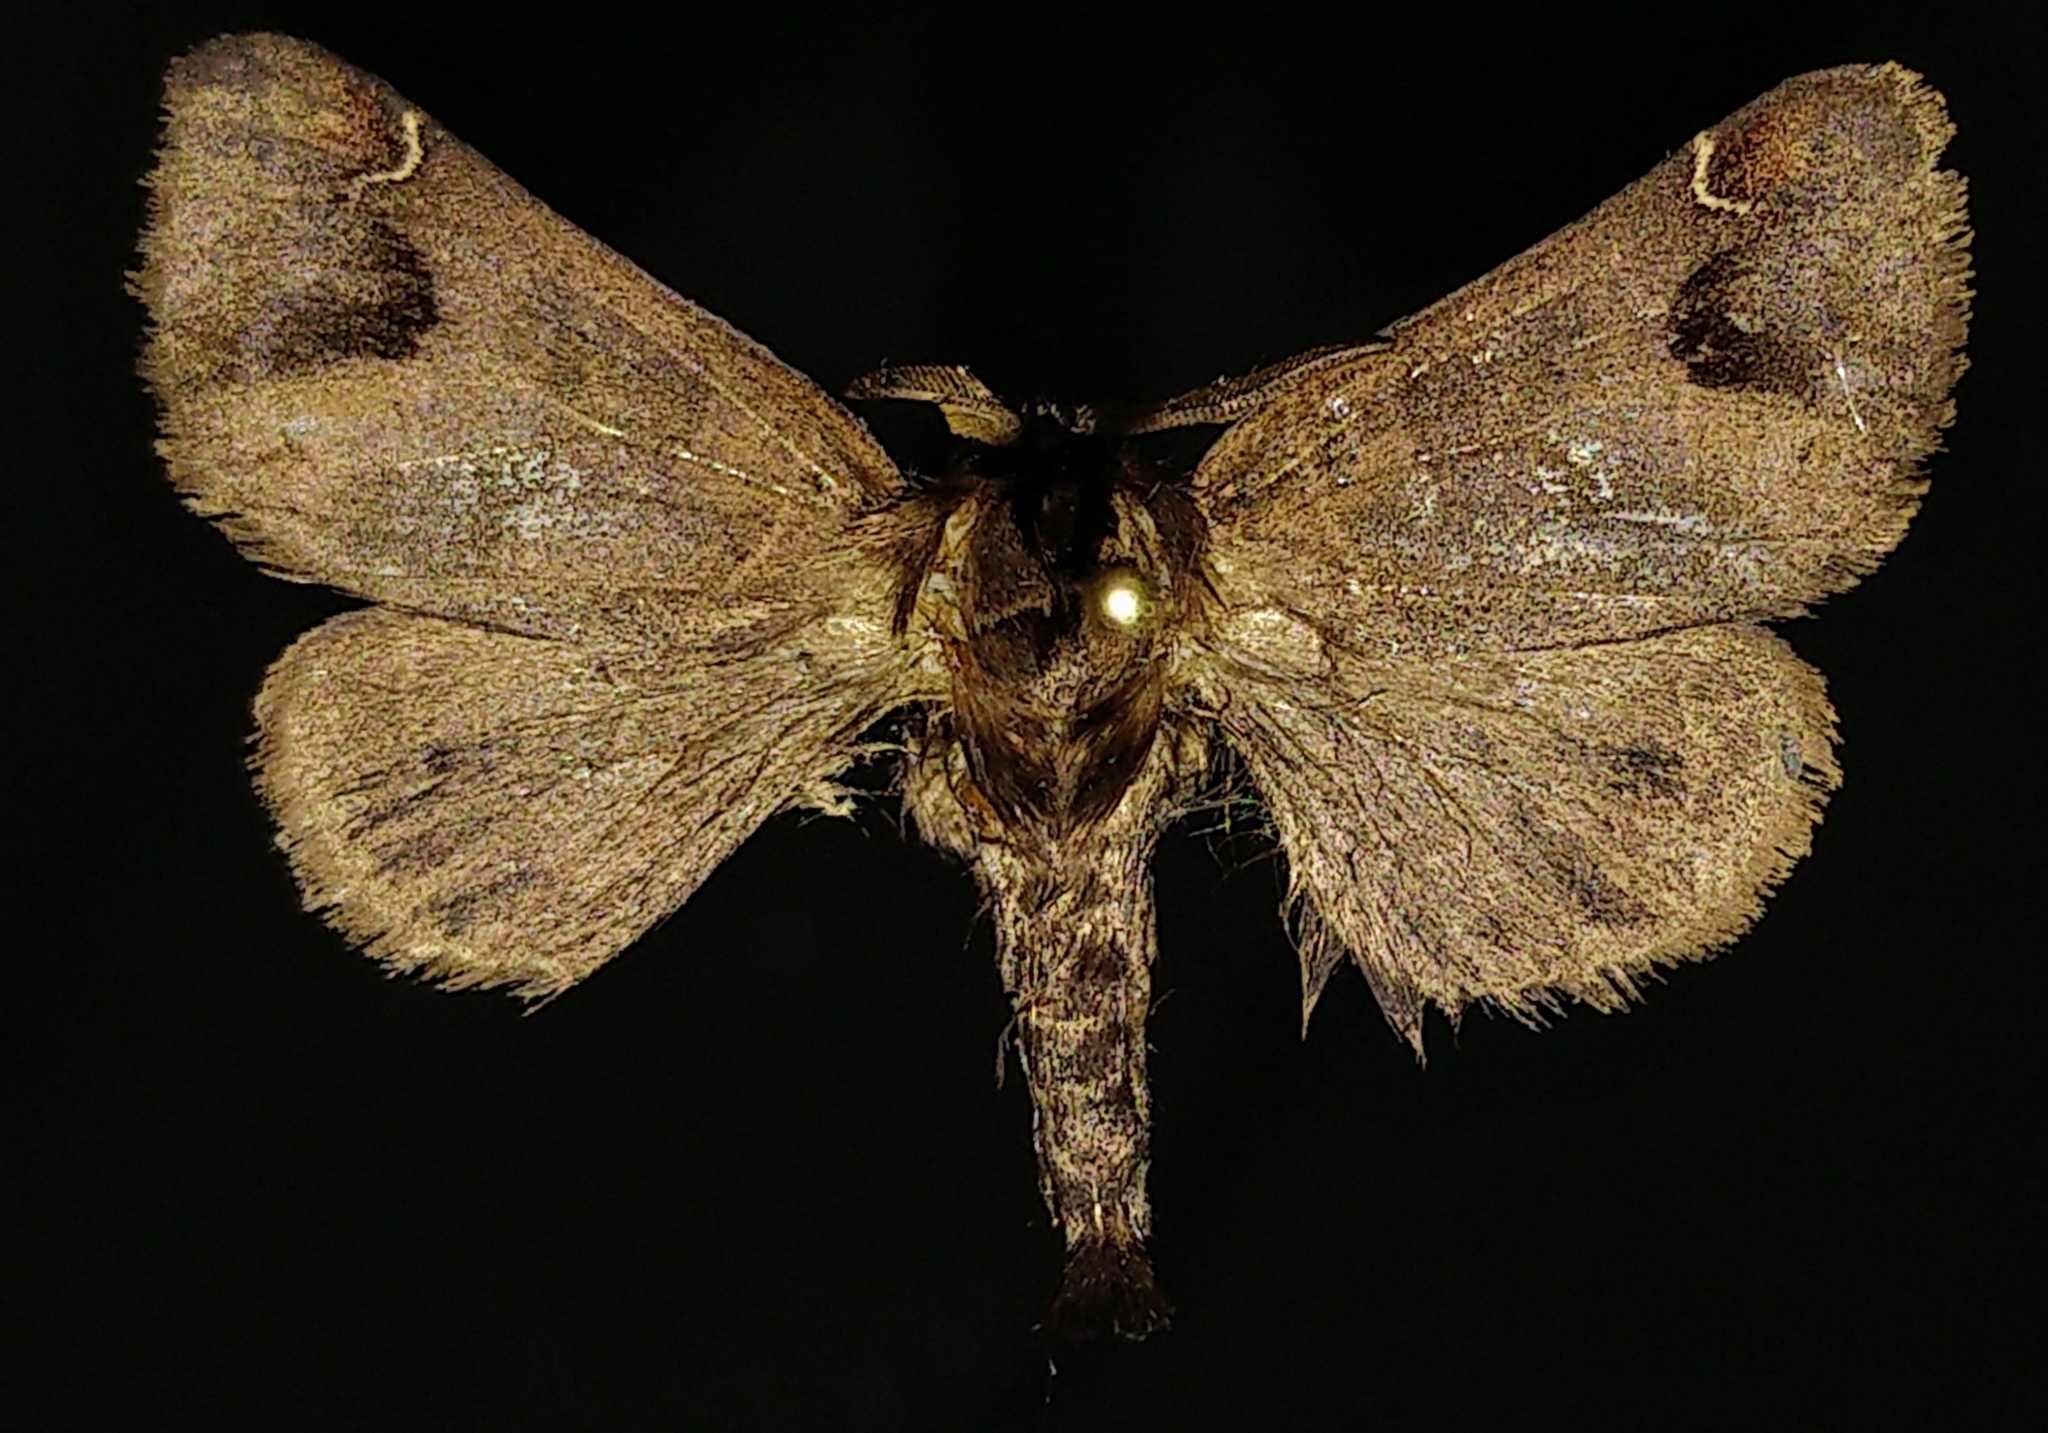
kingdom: Animalia
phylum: Arthropoda
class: Insecta
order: Lepidoptera
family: Notodontidae
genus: Clostera
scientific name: Clostera albosigma
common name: Sigmoid prominent
